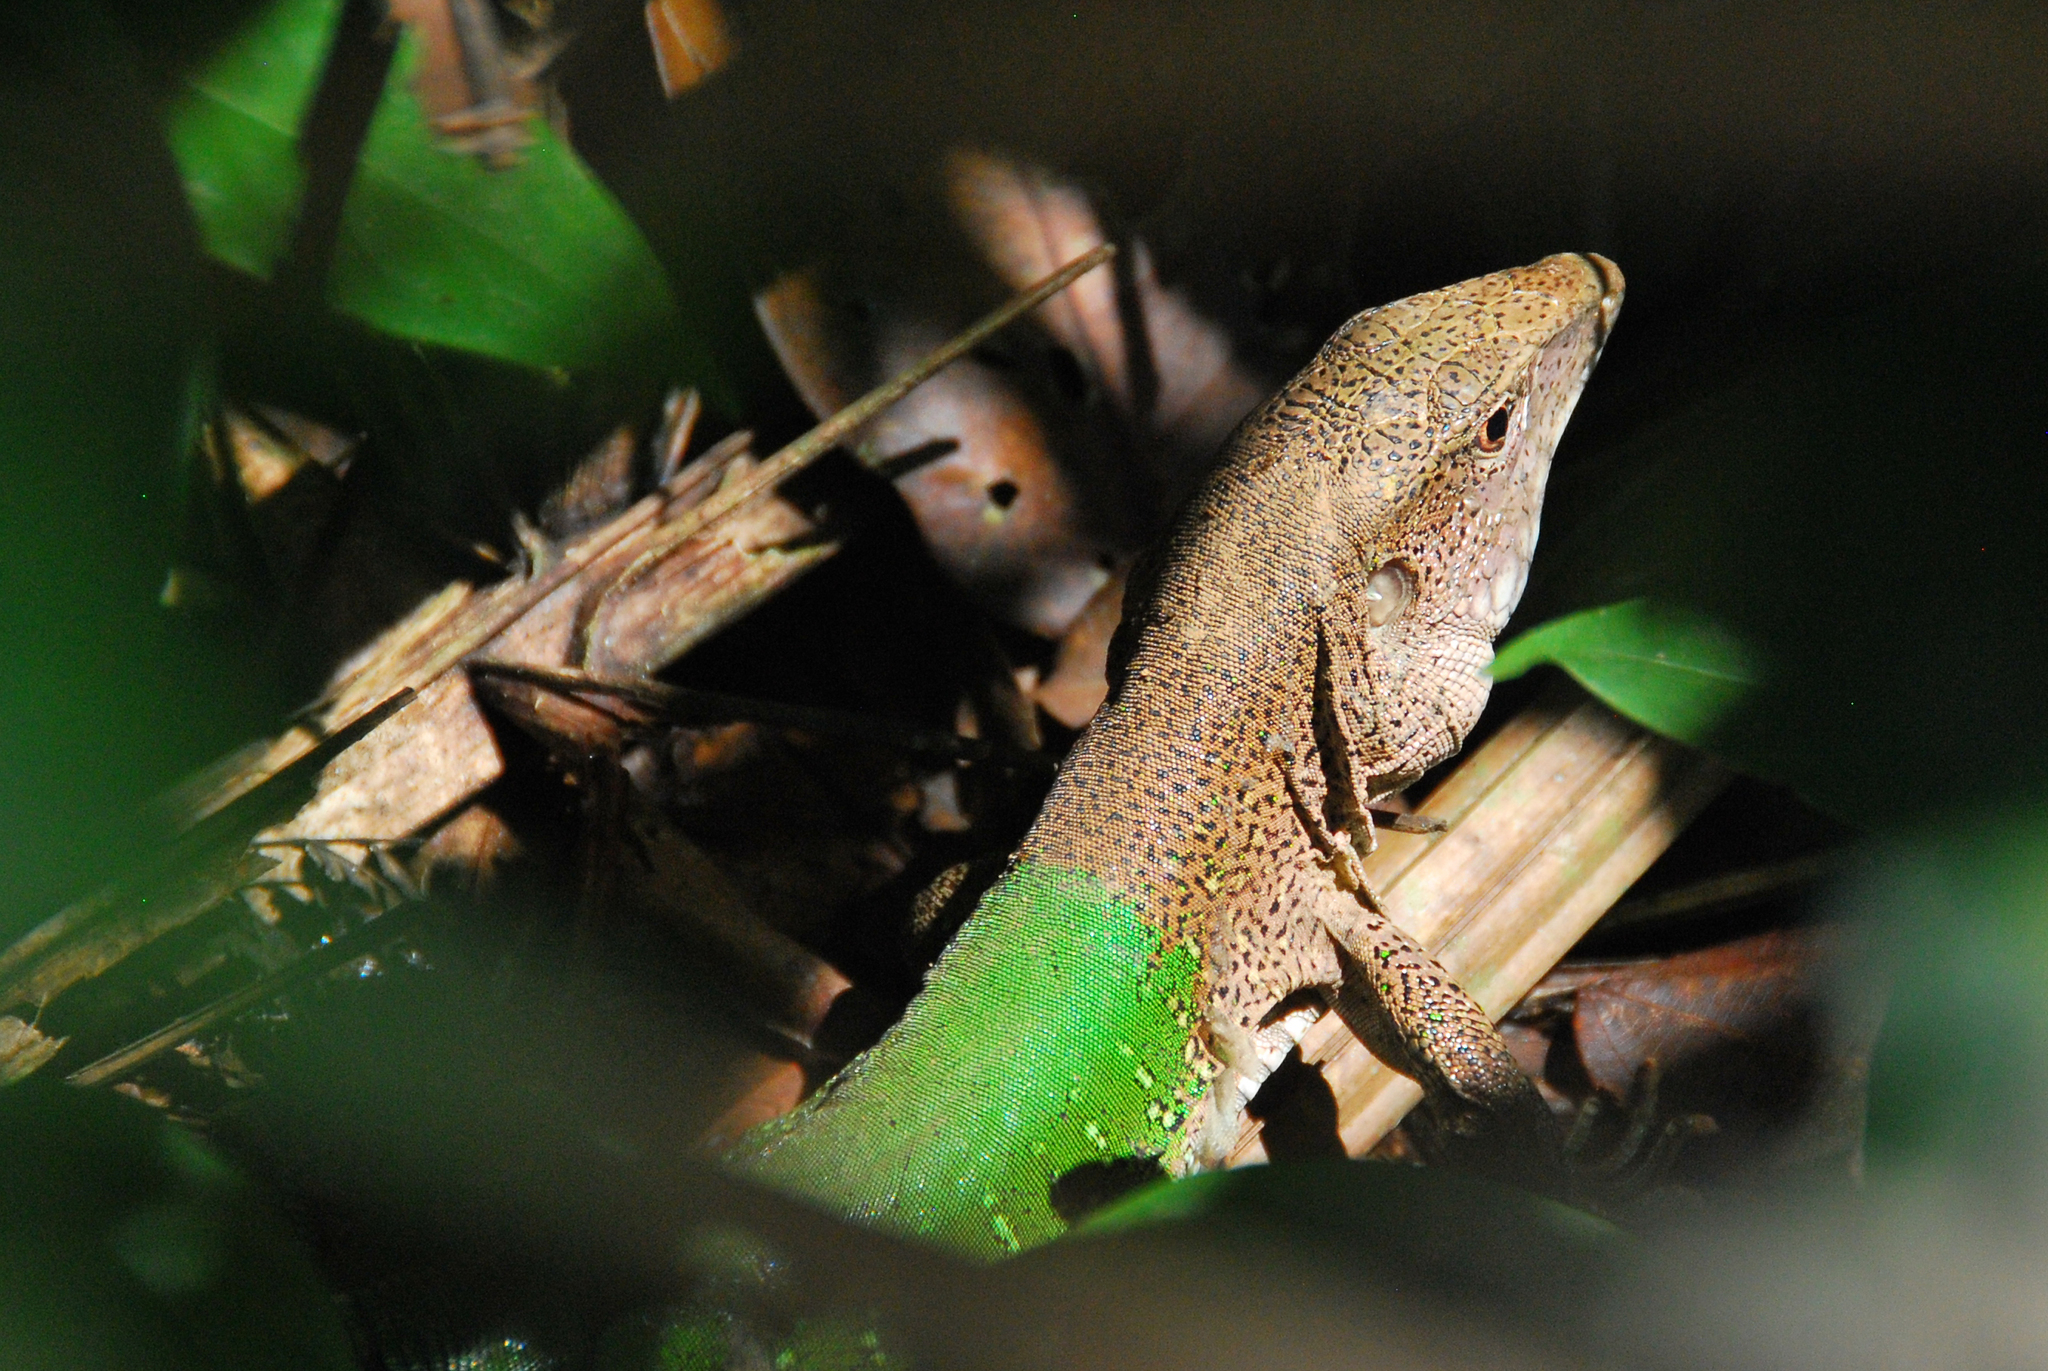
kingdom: Animalia
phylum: Chordata
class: Squamata
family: Teiidae
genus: Ameiva
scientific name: Ameiva ameiva
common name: Giant ameiva
